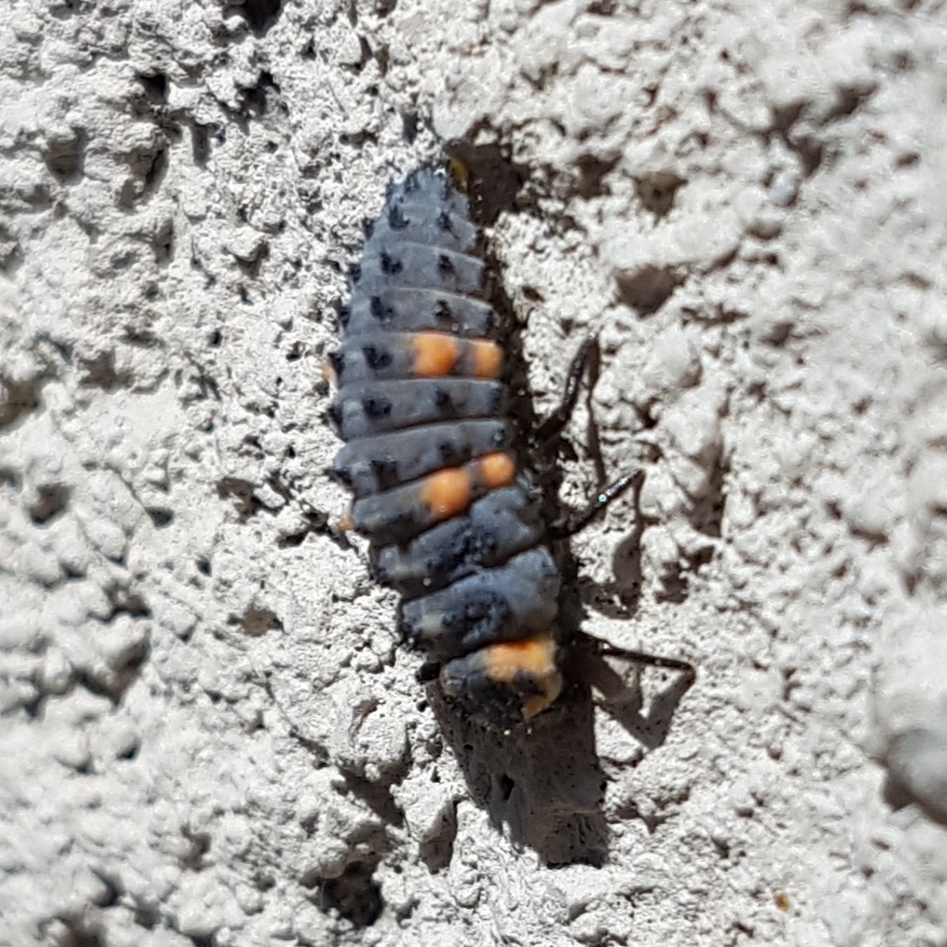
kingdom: Animalia
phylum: Arthropoda
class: Insecta
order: Coleoptera
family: Coccinellidae
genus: Coccinella
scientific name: Coccinella septempunctata
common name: Sevenspotted lady beetle
